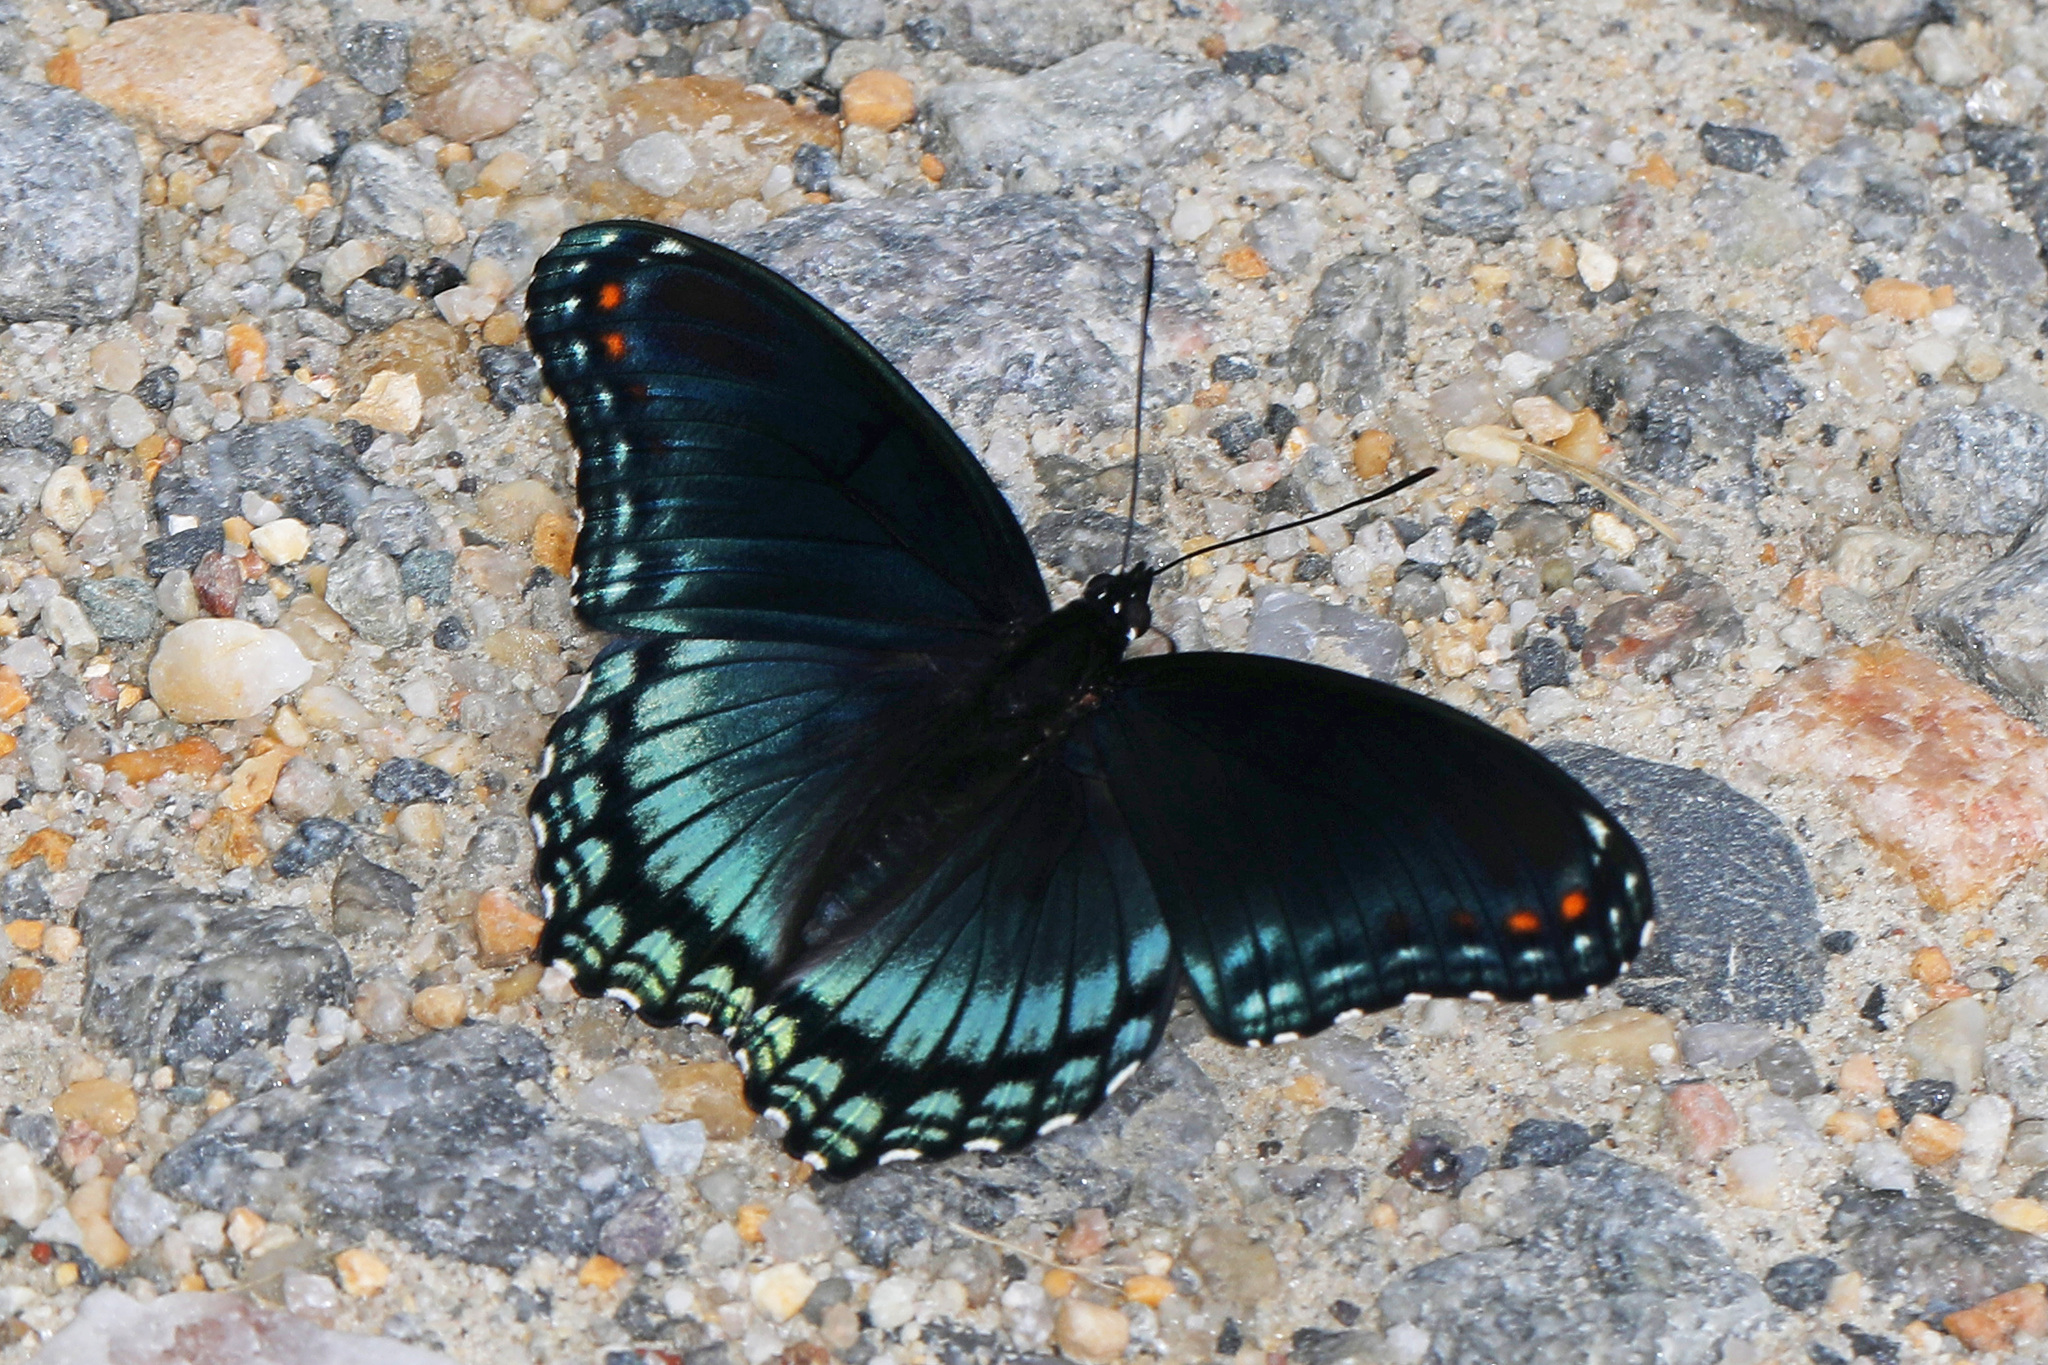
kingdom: Animalia
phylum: Arthropoda
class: Insecta
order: Lepidoptera
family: Nymphalidae
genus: Limenitis
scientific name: Limenitis astyanax
